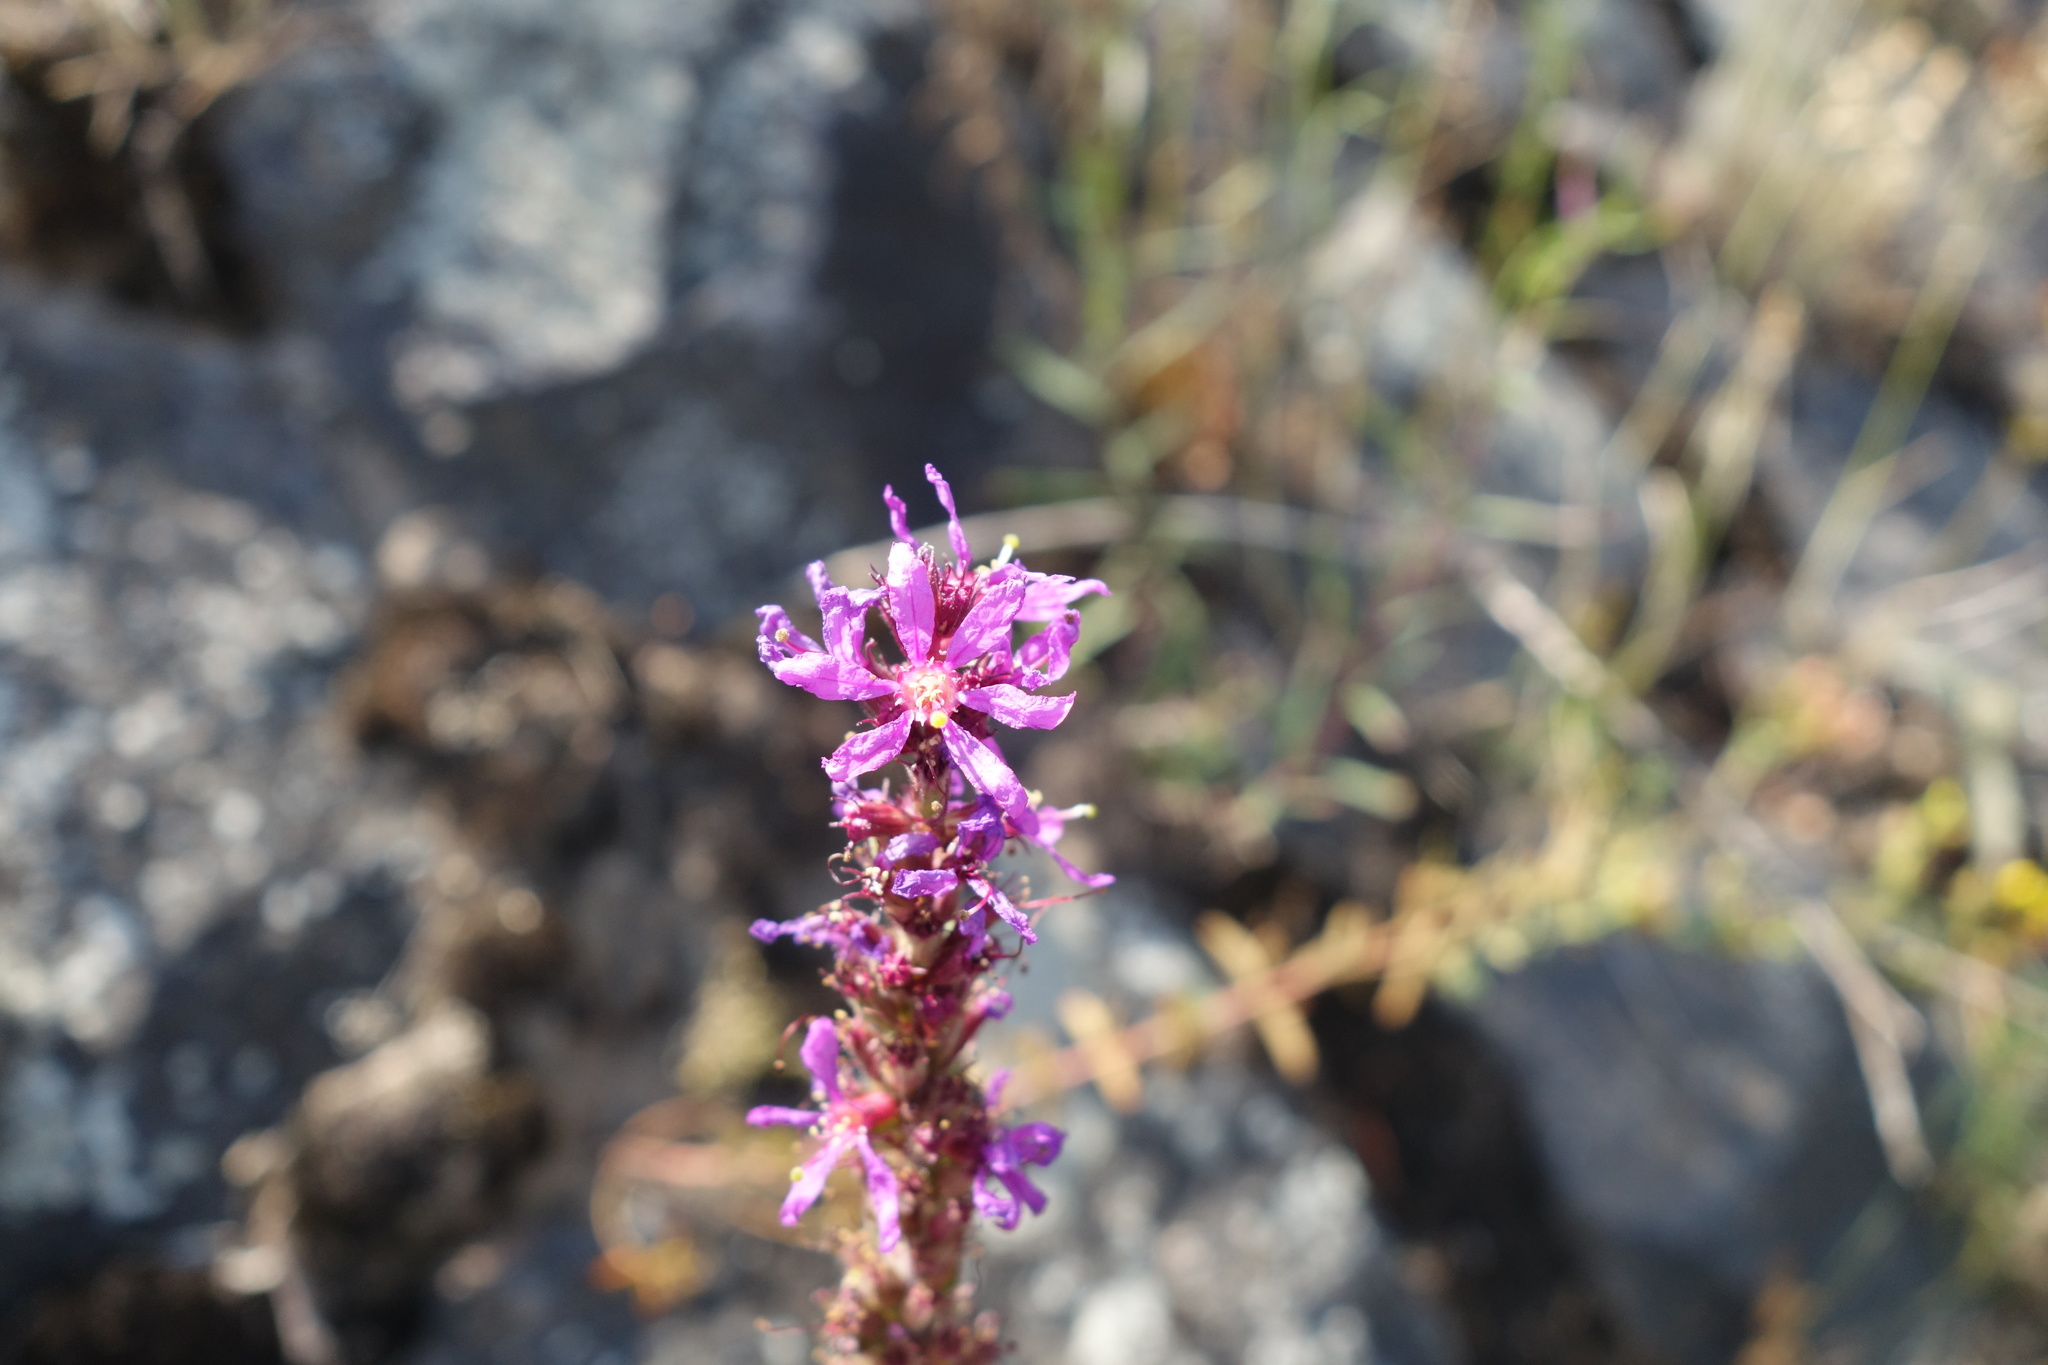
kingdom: Plantae
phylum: Tracheophyta
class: Magnoliopsida
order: Myrtales
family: Lythraceae
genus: Lythrum
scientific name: Lythrum salicaria
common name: Purple loosestrife
